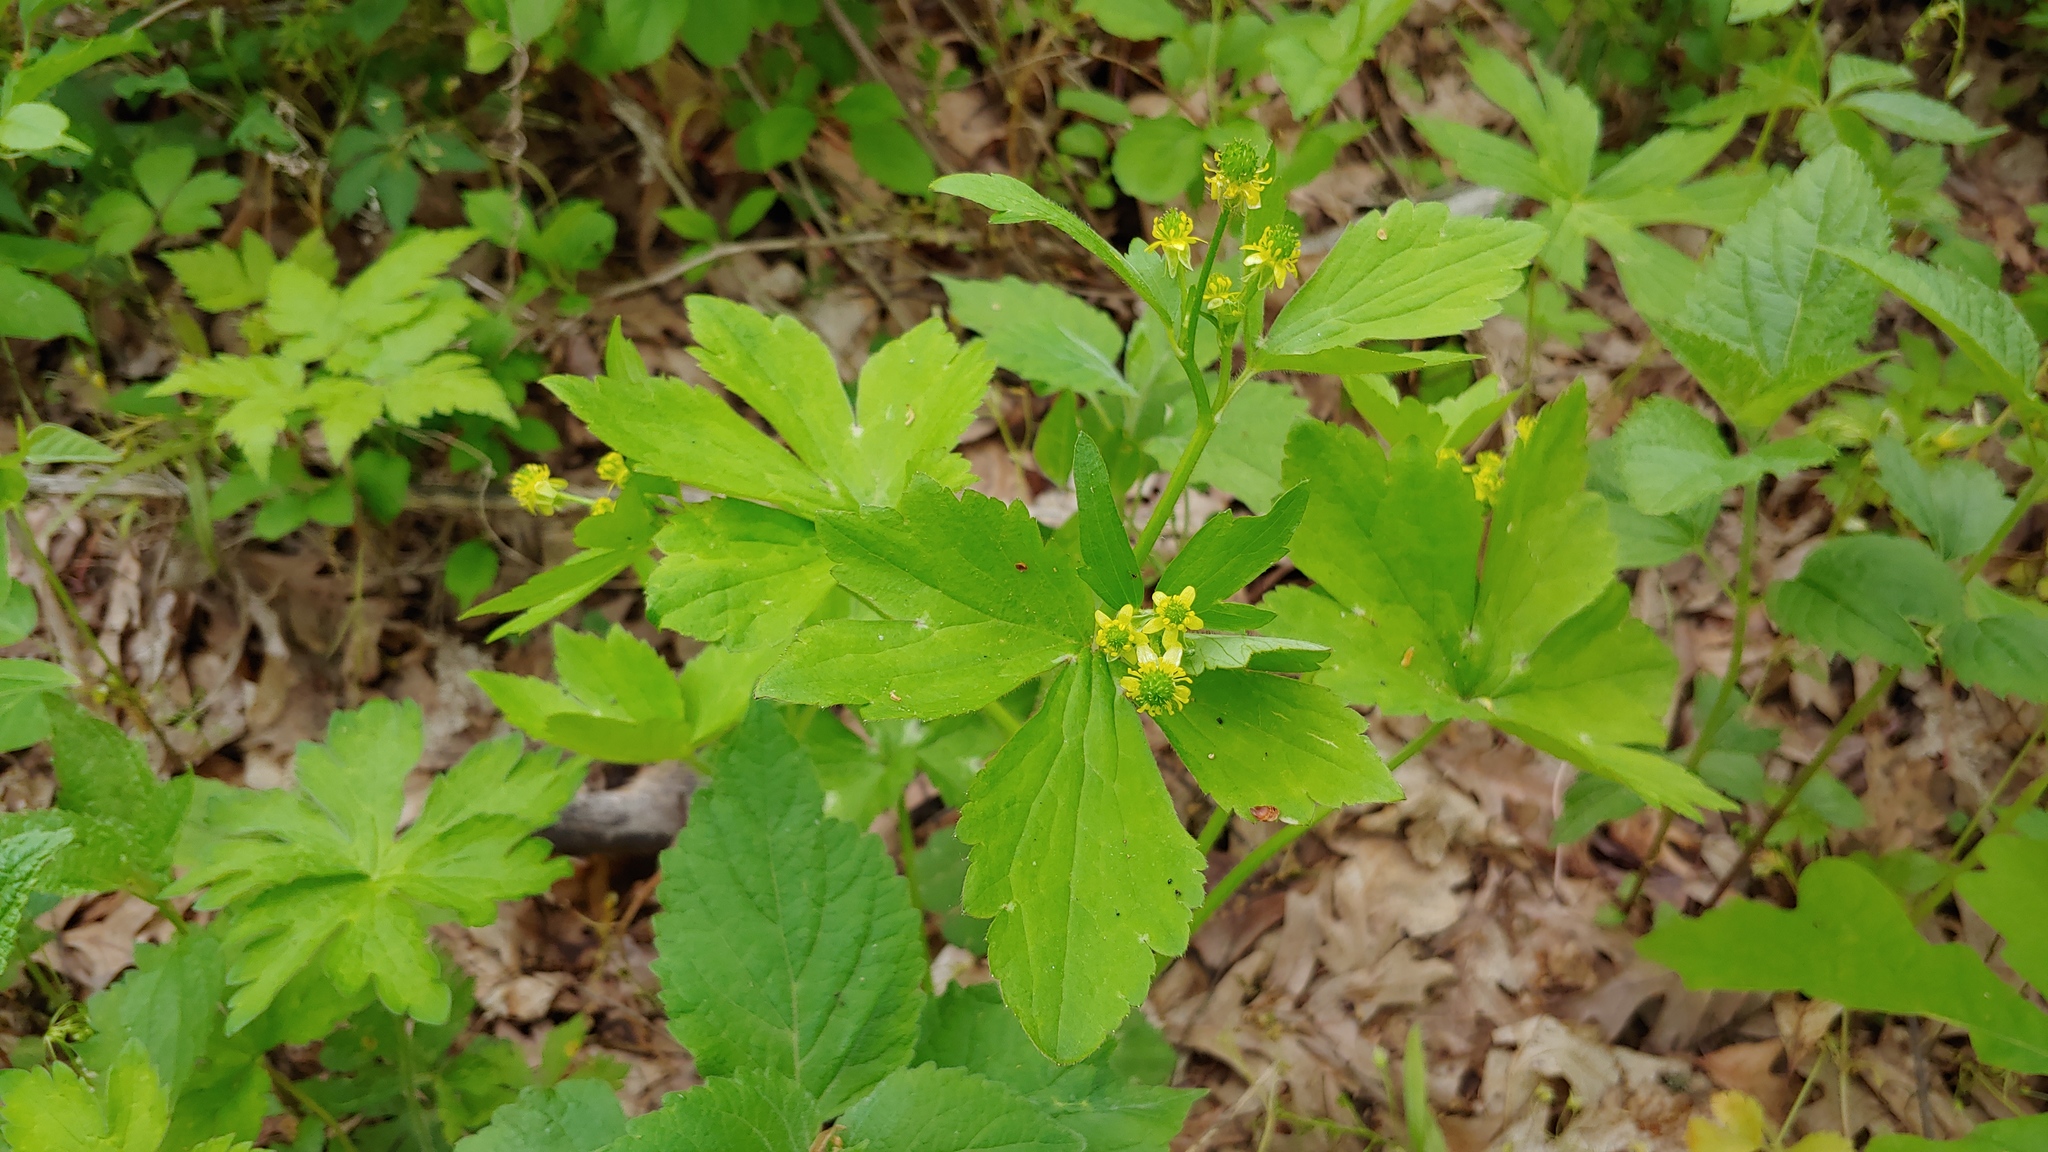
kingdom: Plantae
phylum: Tracheophyta
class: Magnoliopsida
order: Ranunculales
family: Ranunculaceae
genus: Ranunculus
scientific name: Ranunculus recurvatus
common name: Blisterwort
